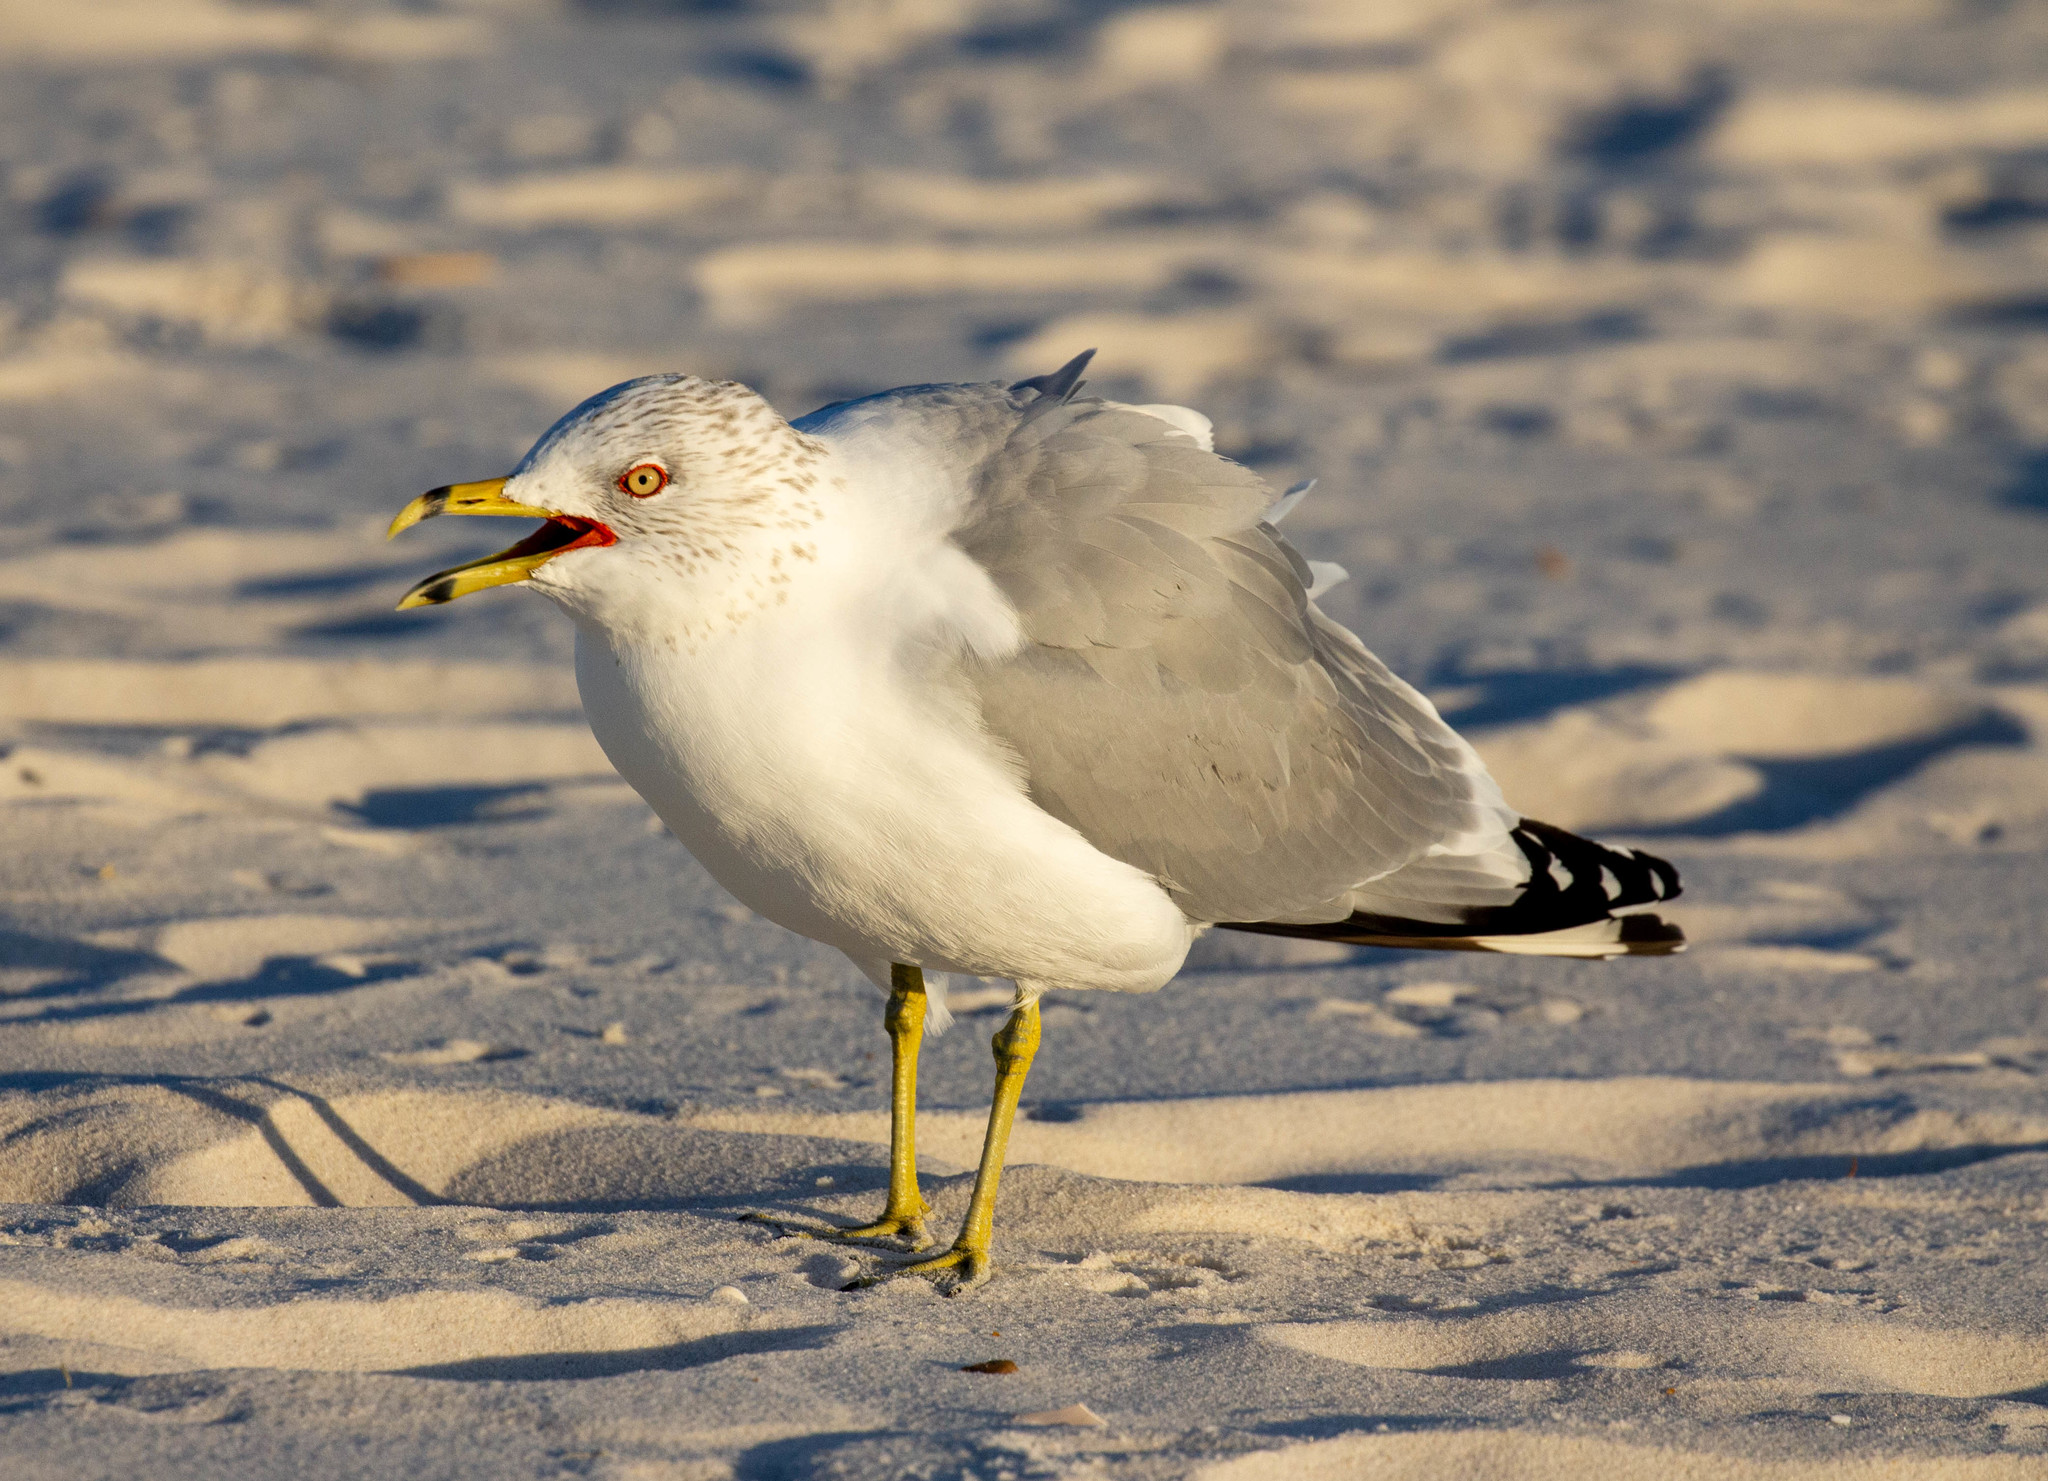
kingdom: Animalia
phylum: Chordata
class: Aves
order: Charadriiformes
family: Laridae
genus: Larus
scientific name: Larus delawarensis
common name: Ring-billed gull
